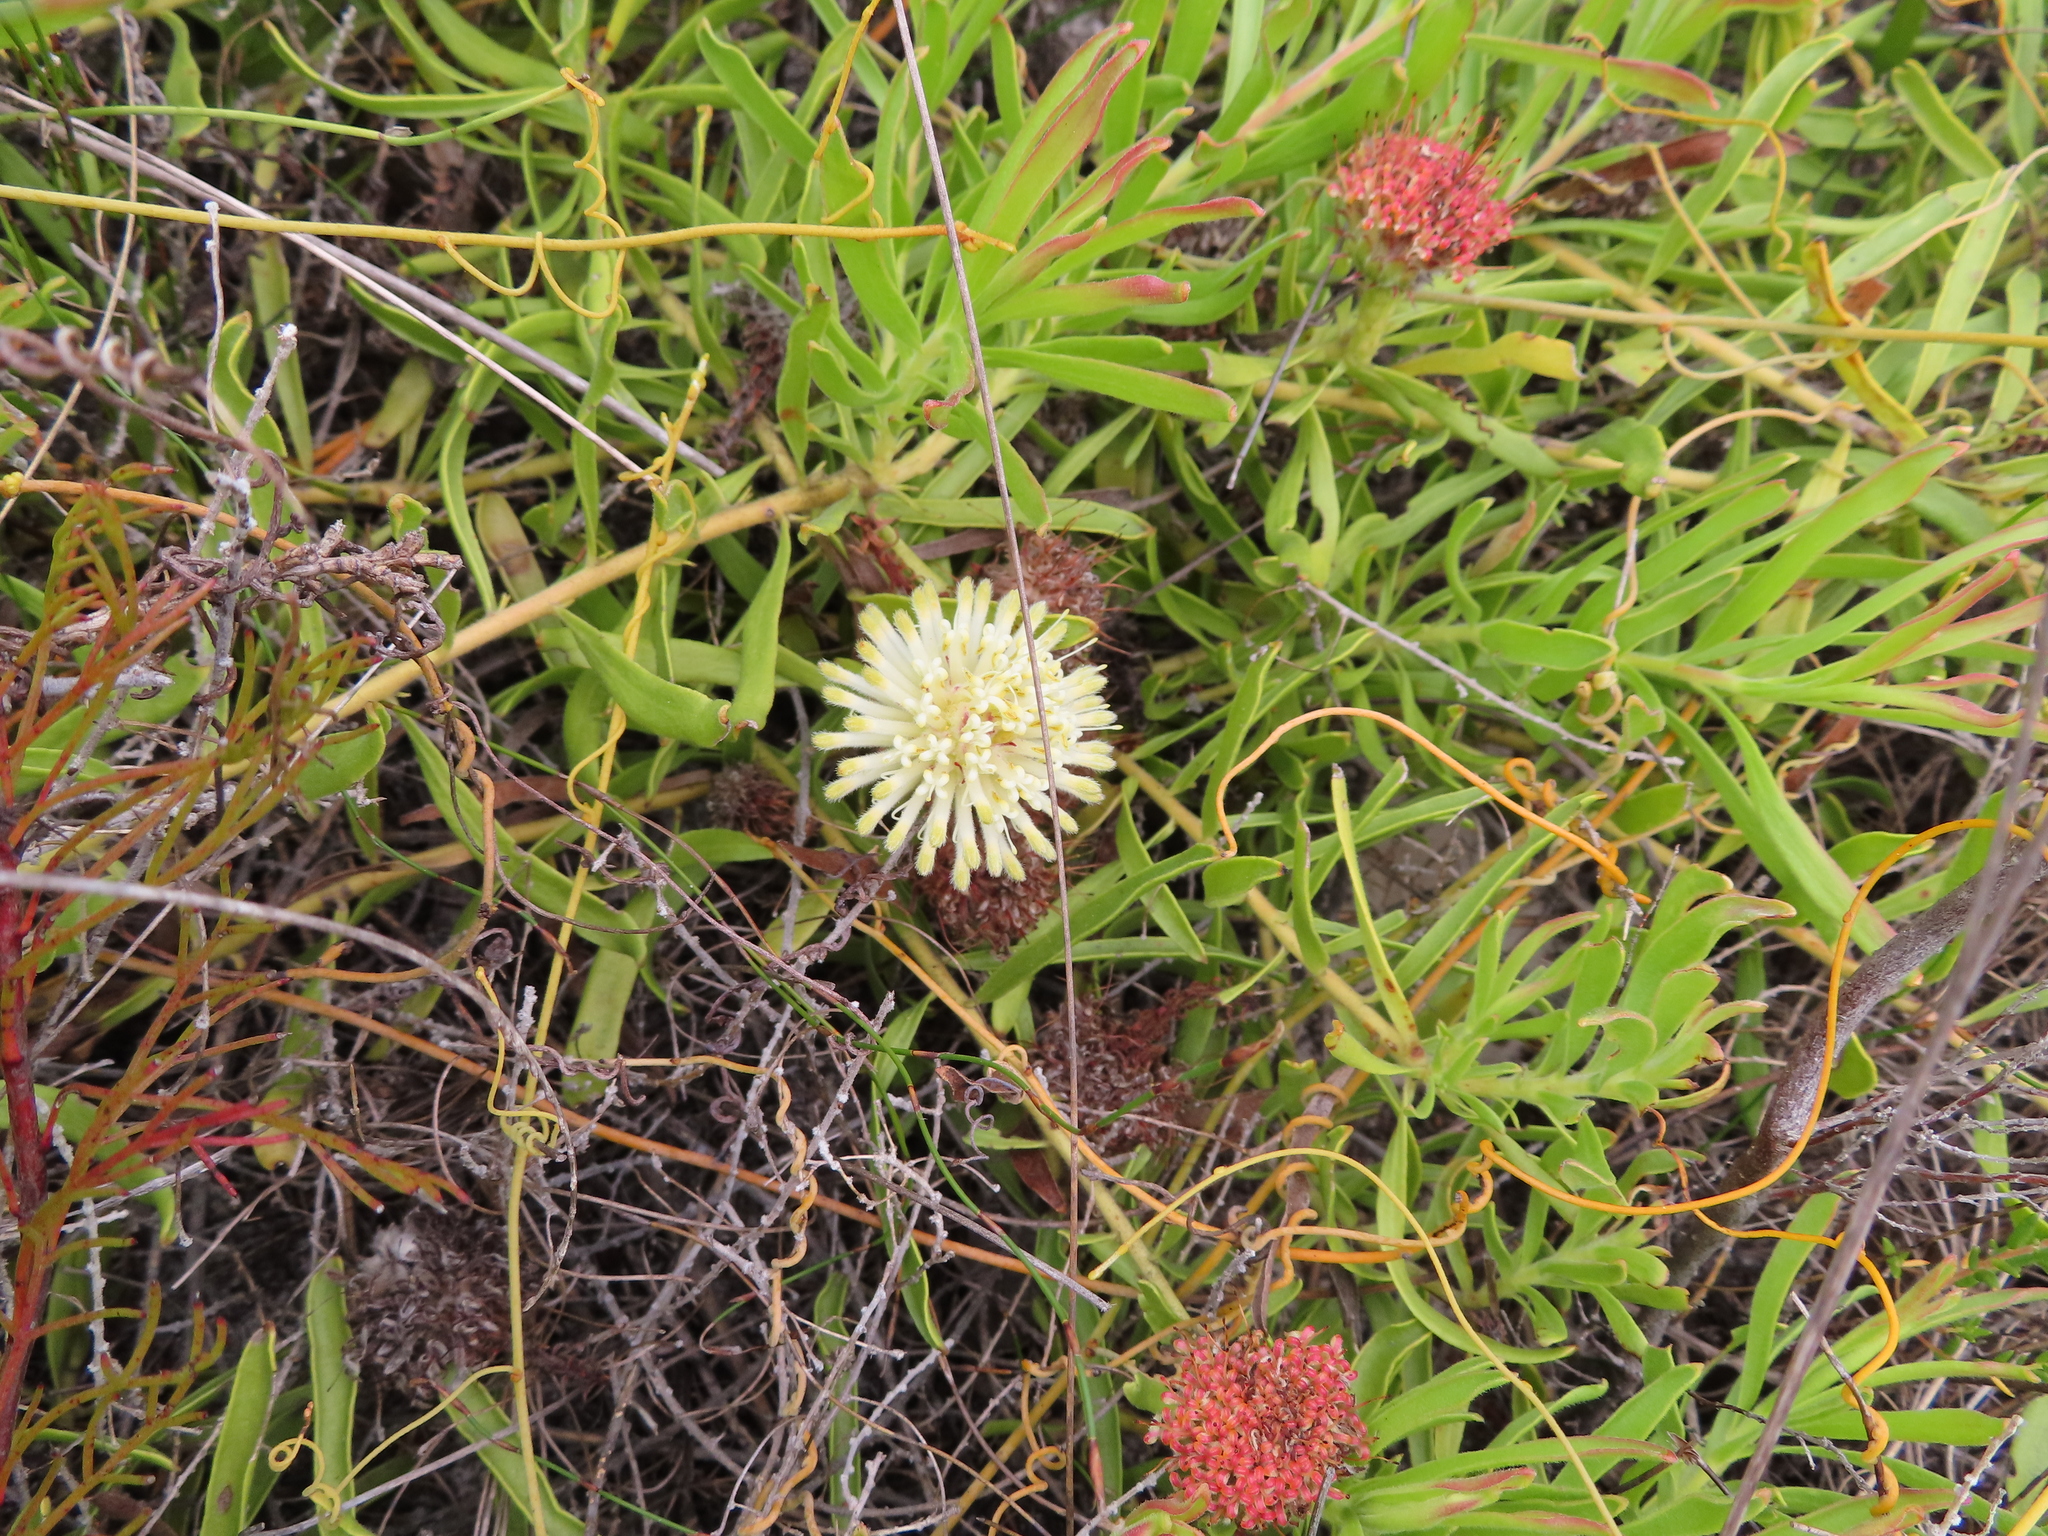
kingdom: Plantae
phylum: Tracheophyta
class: Magnoliopsida
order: Proteales
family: Proteaceae
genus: Leucospermum
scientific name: Leucospermum pedunculatum
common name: White-trailing pincushion
